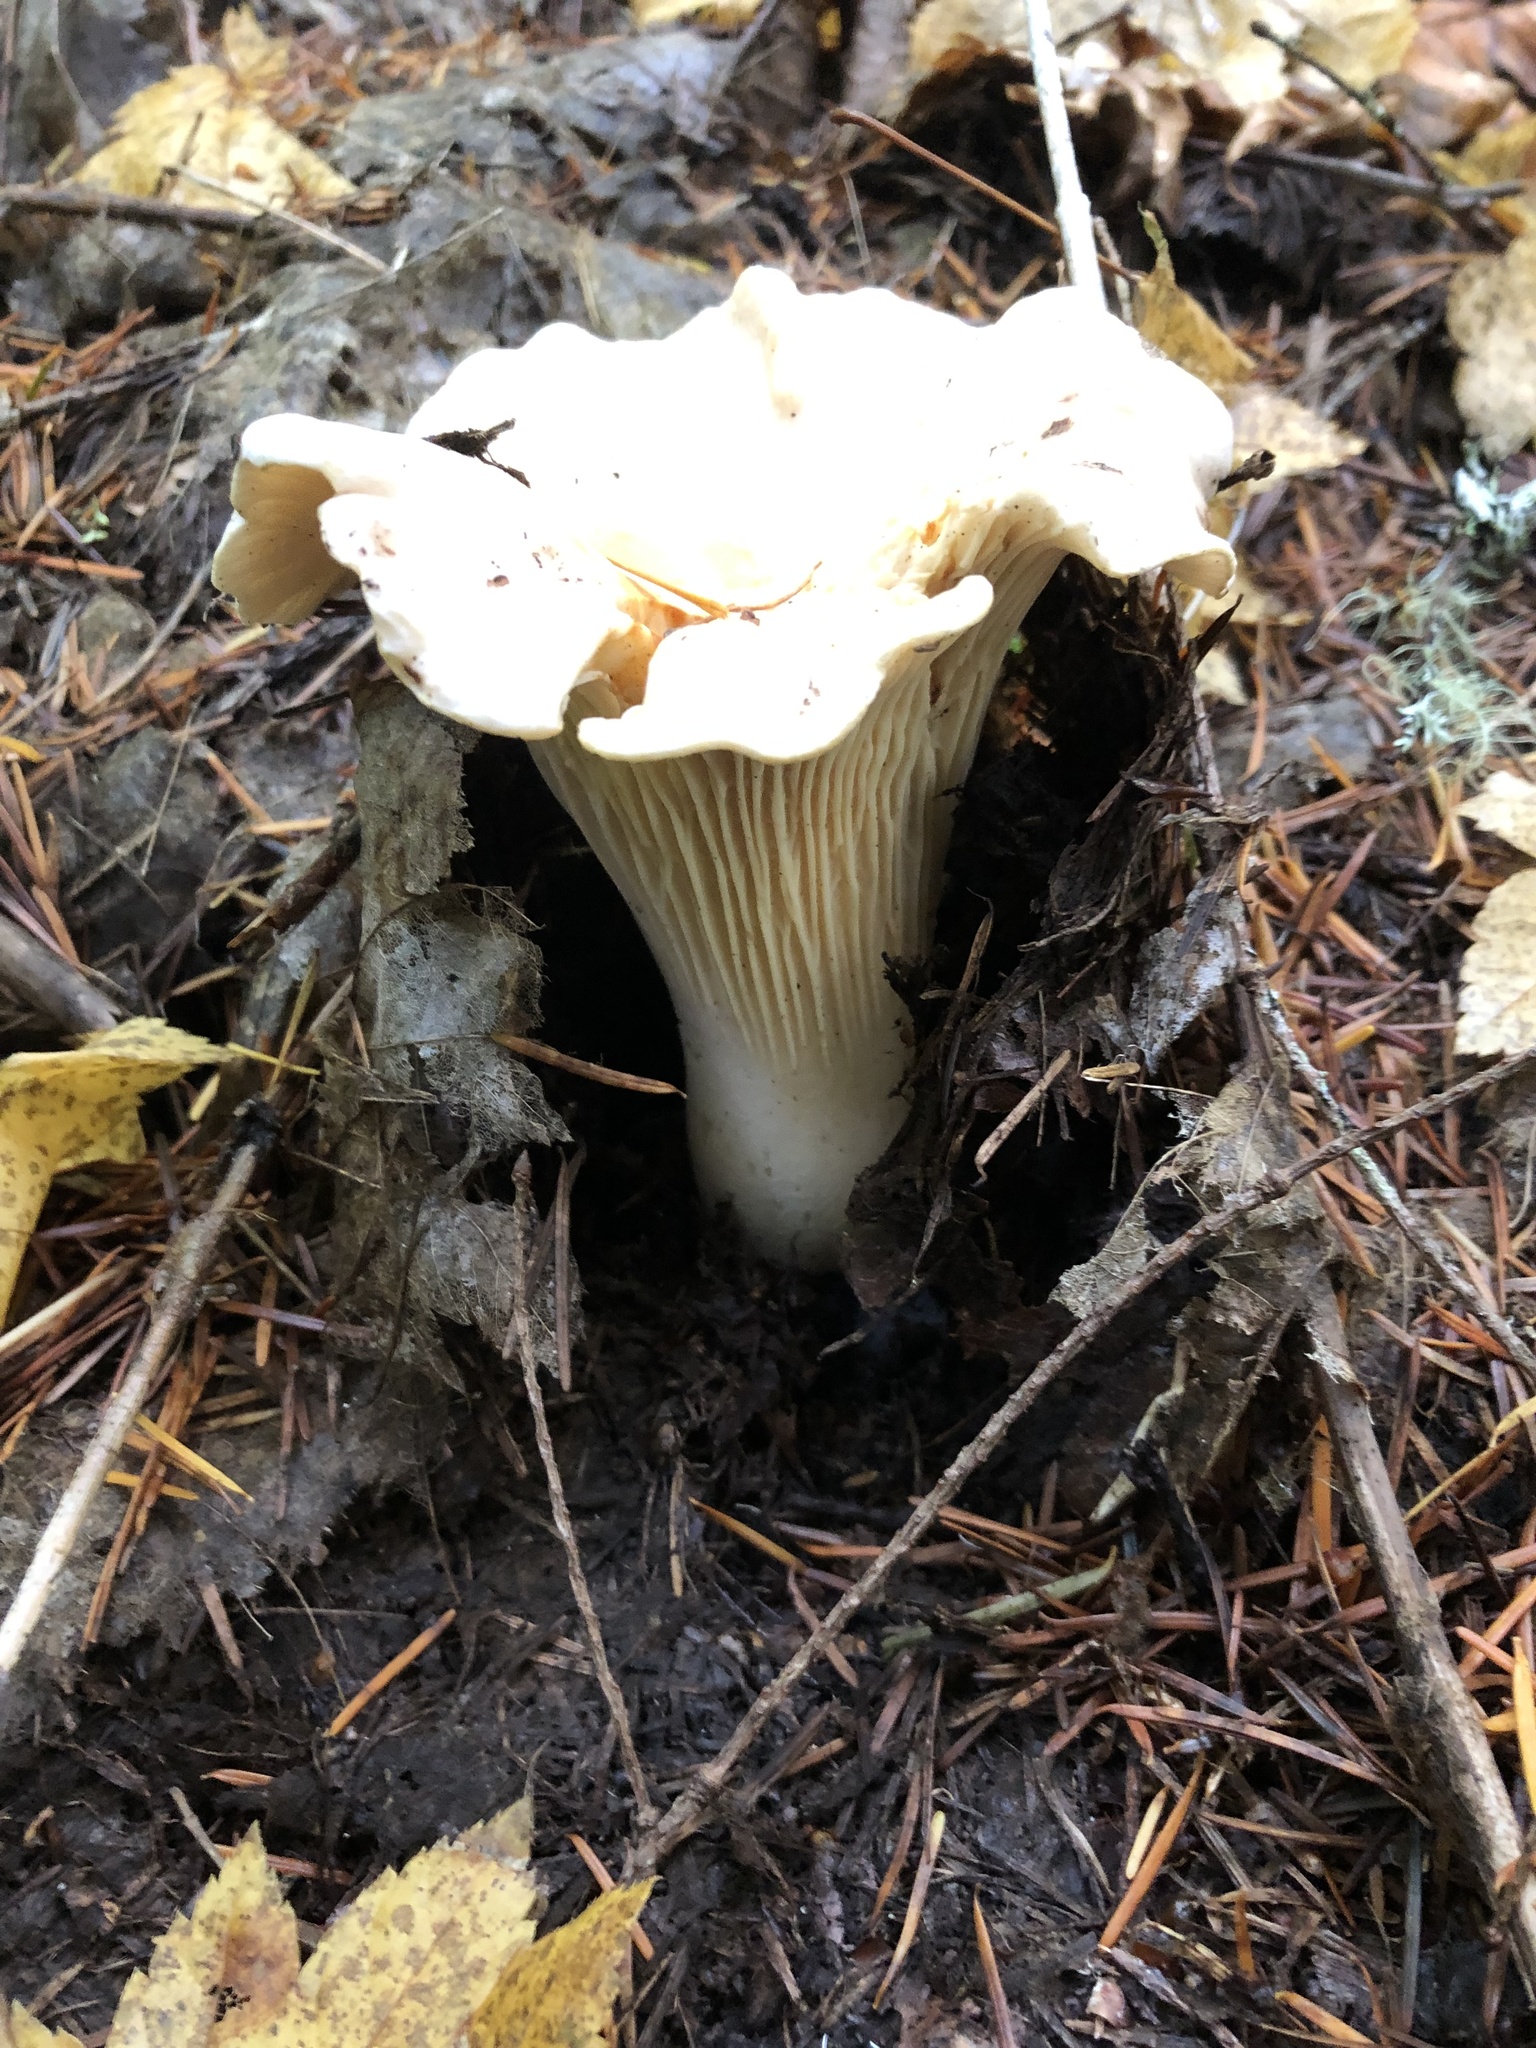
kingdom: Fungi
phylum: Basidiomycota
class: Agaricomycetes
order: Cantharellales
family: Hydnaceae
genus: Cantharellus
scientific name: Cantharellus subalbidus
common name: White chanterelle
